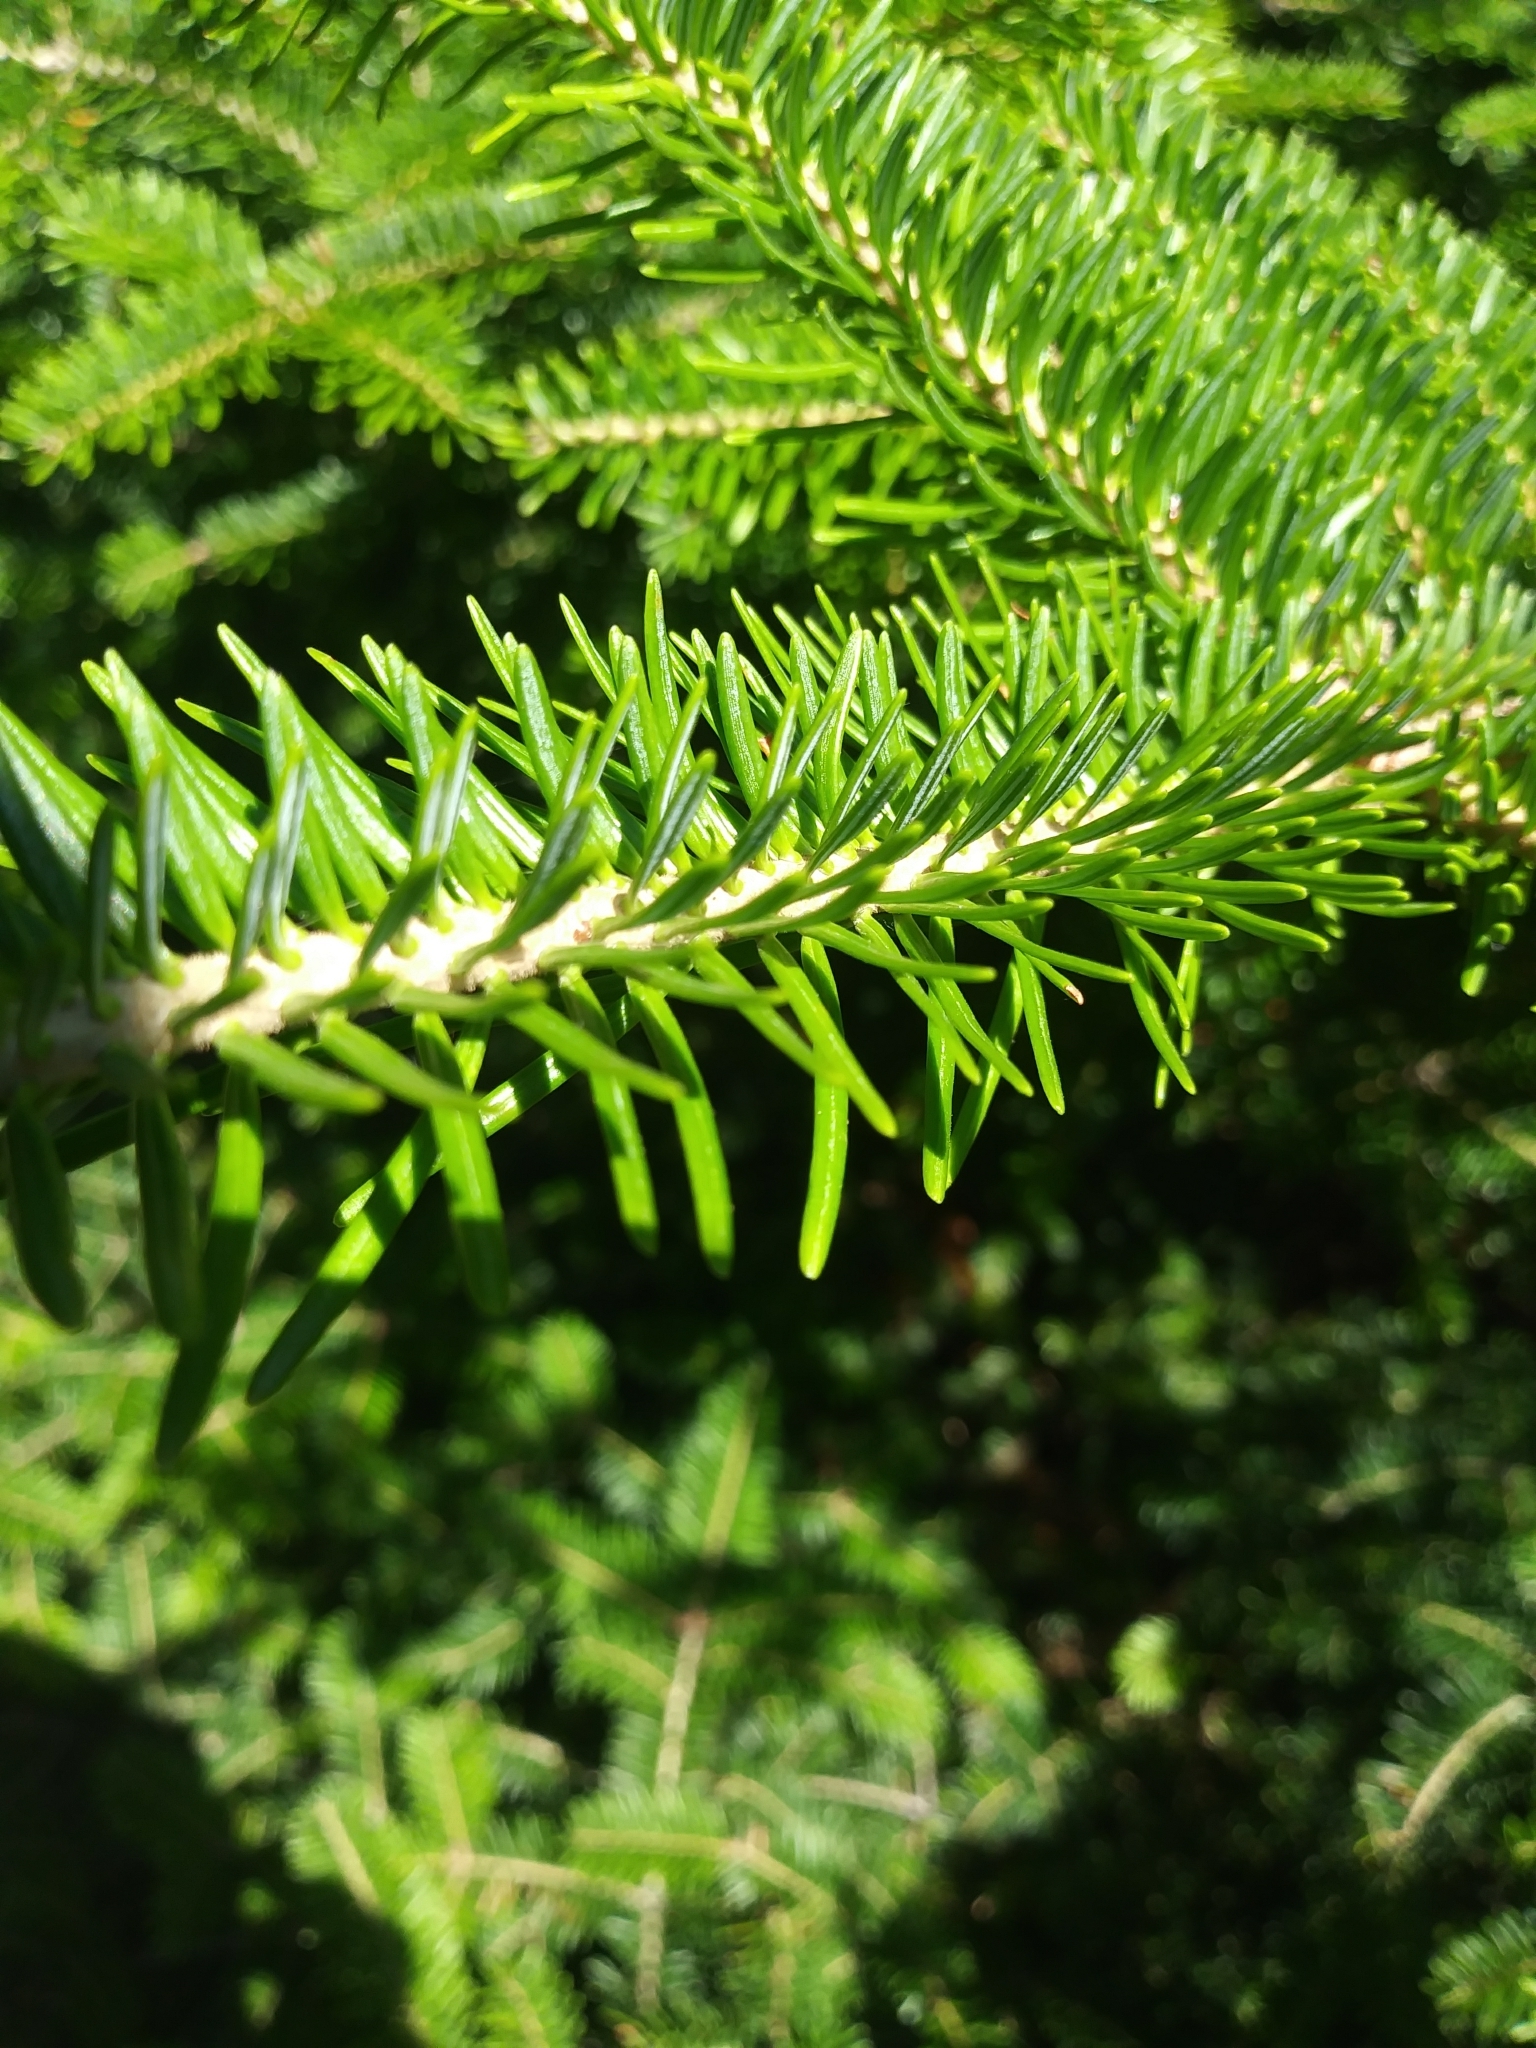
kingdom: Plantae
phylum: Tracheophyta
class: Pinopsida
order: Pinales
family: Pinaceae
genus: Abies
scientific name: Abies balsamea
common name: Balsam fir
